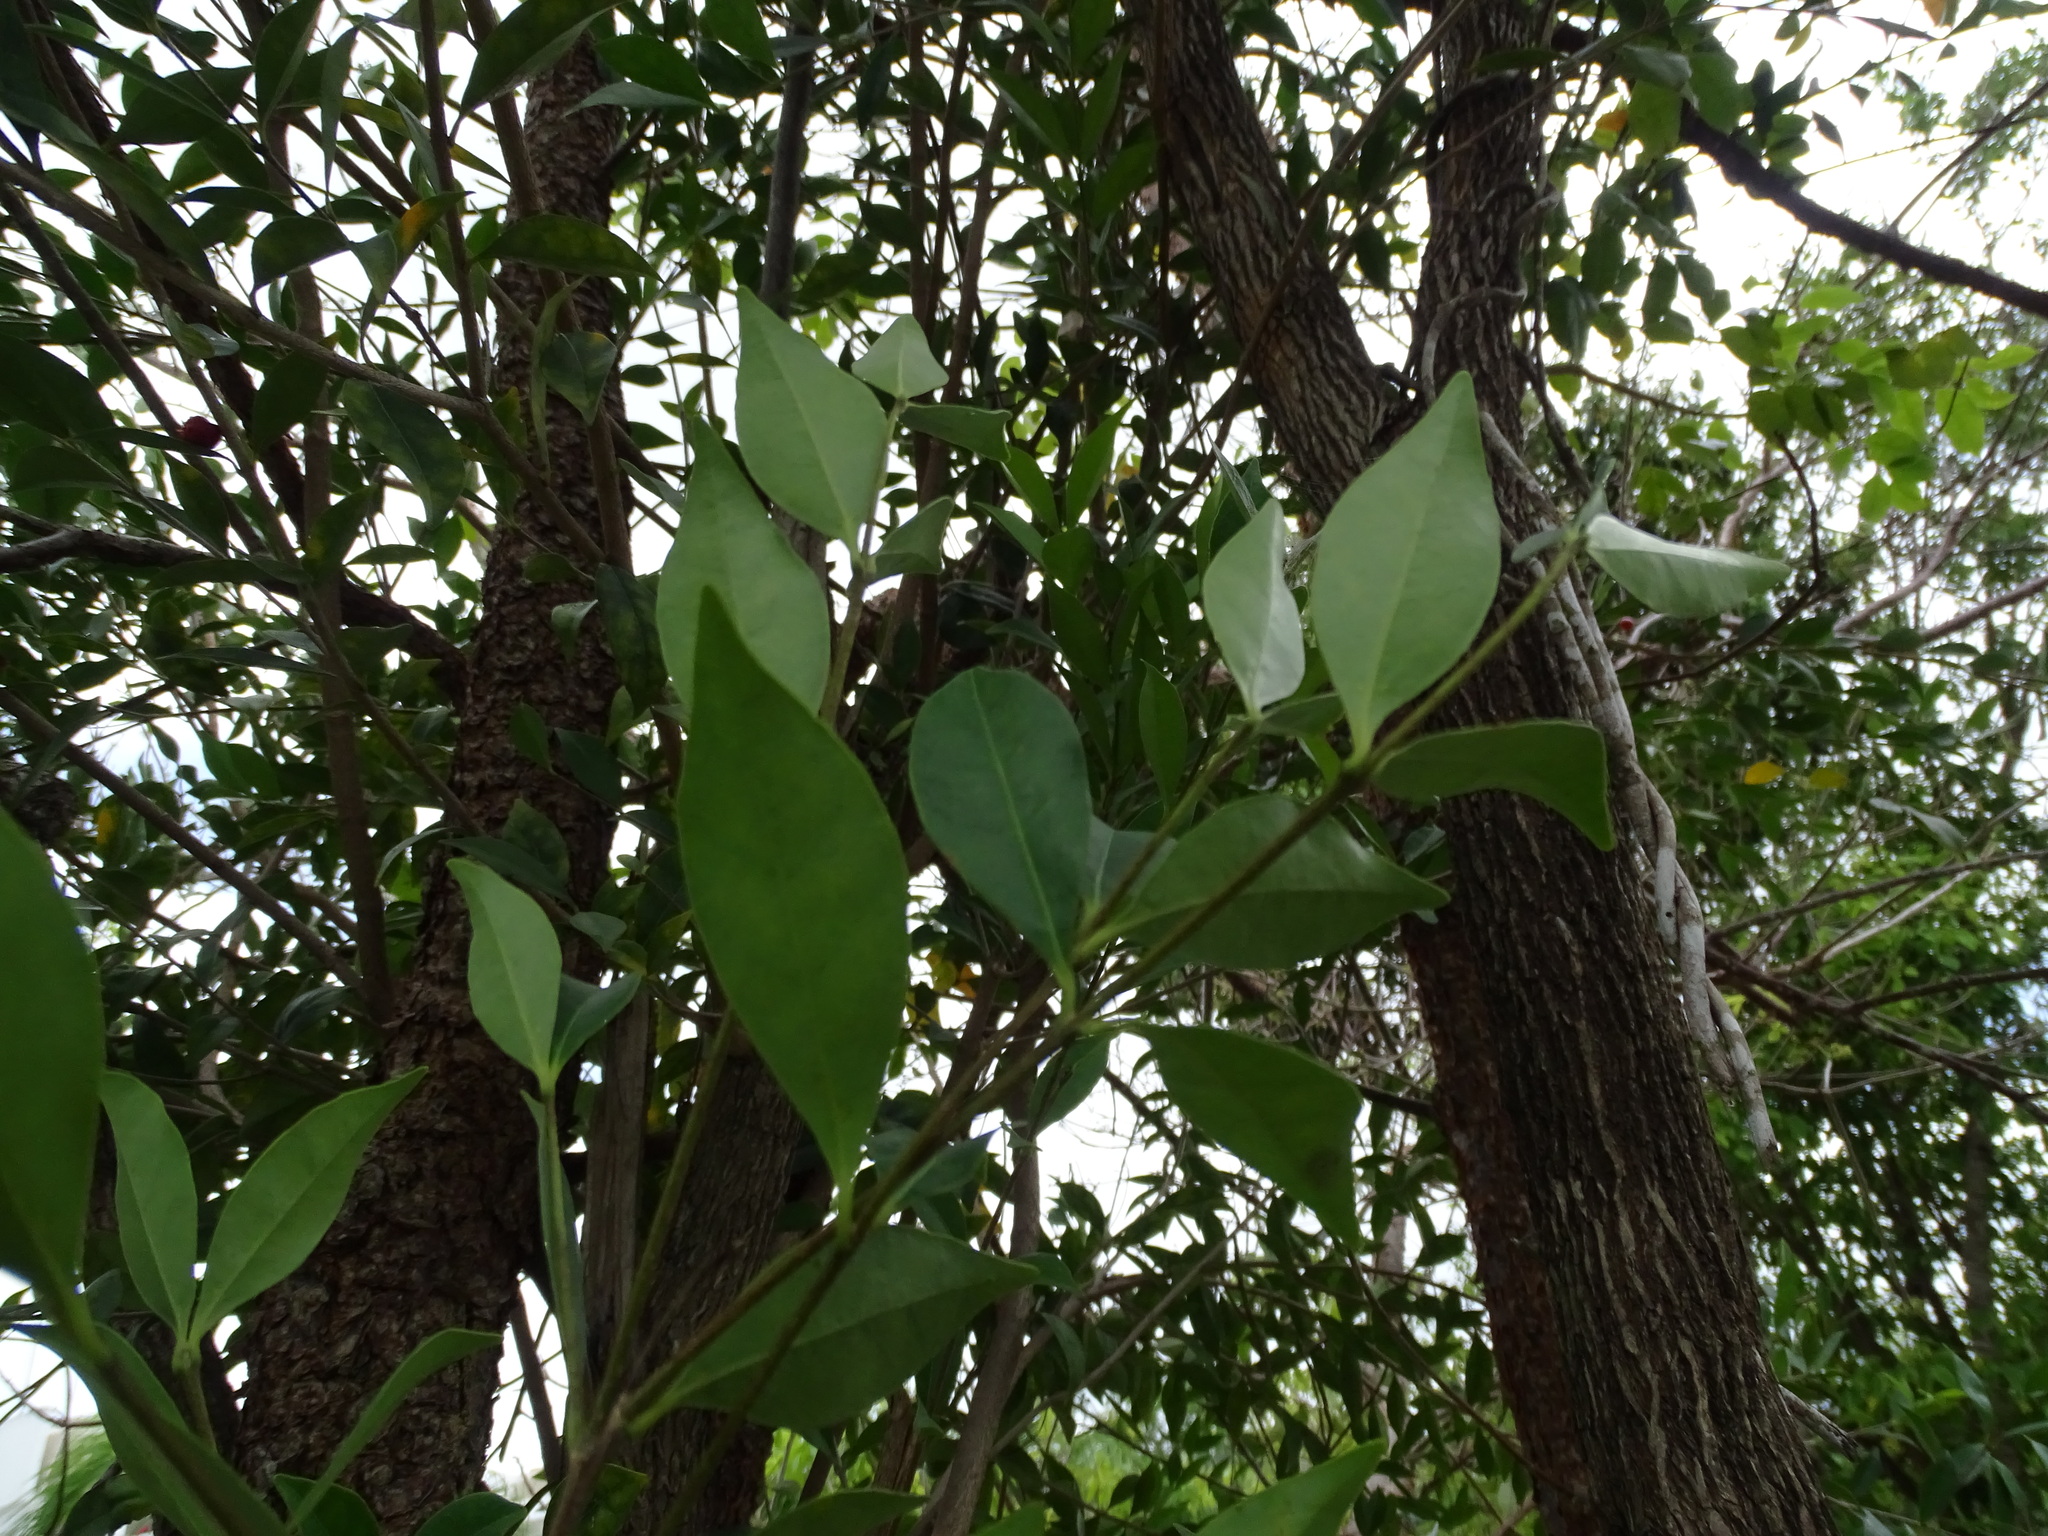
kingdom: Plantae
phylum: Tracheophyta
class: Magnoliopsida
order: Malpighiales
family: Malpighiaceae
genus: Bunchosia
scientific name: Bunchosia swartziana
